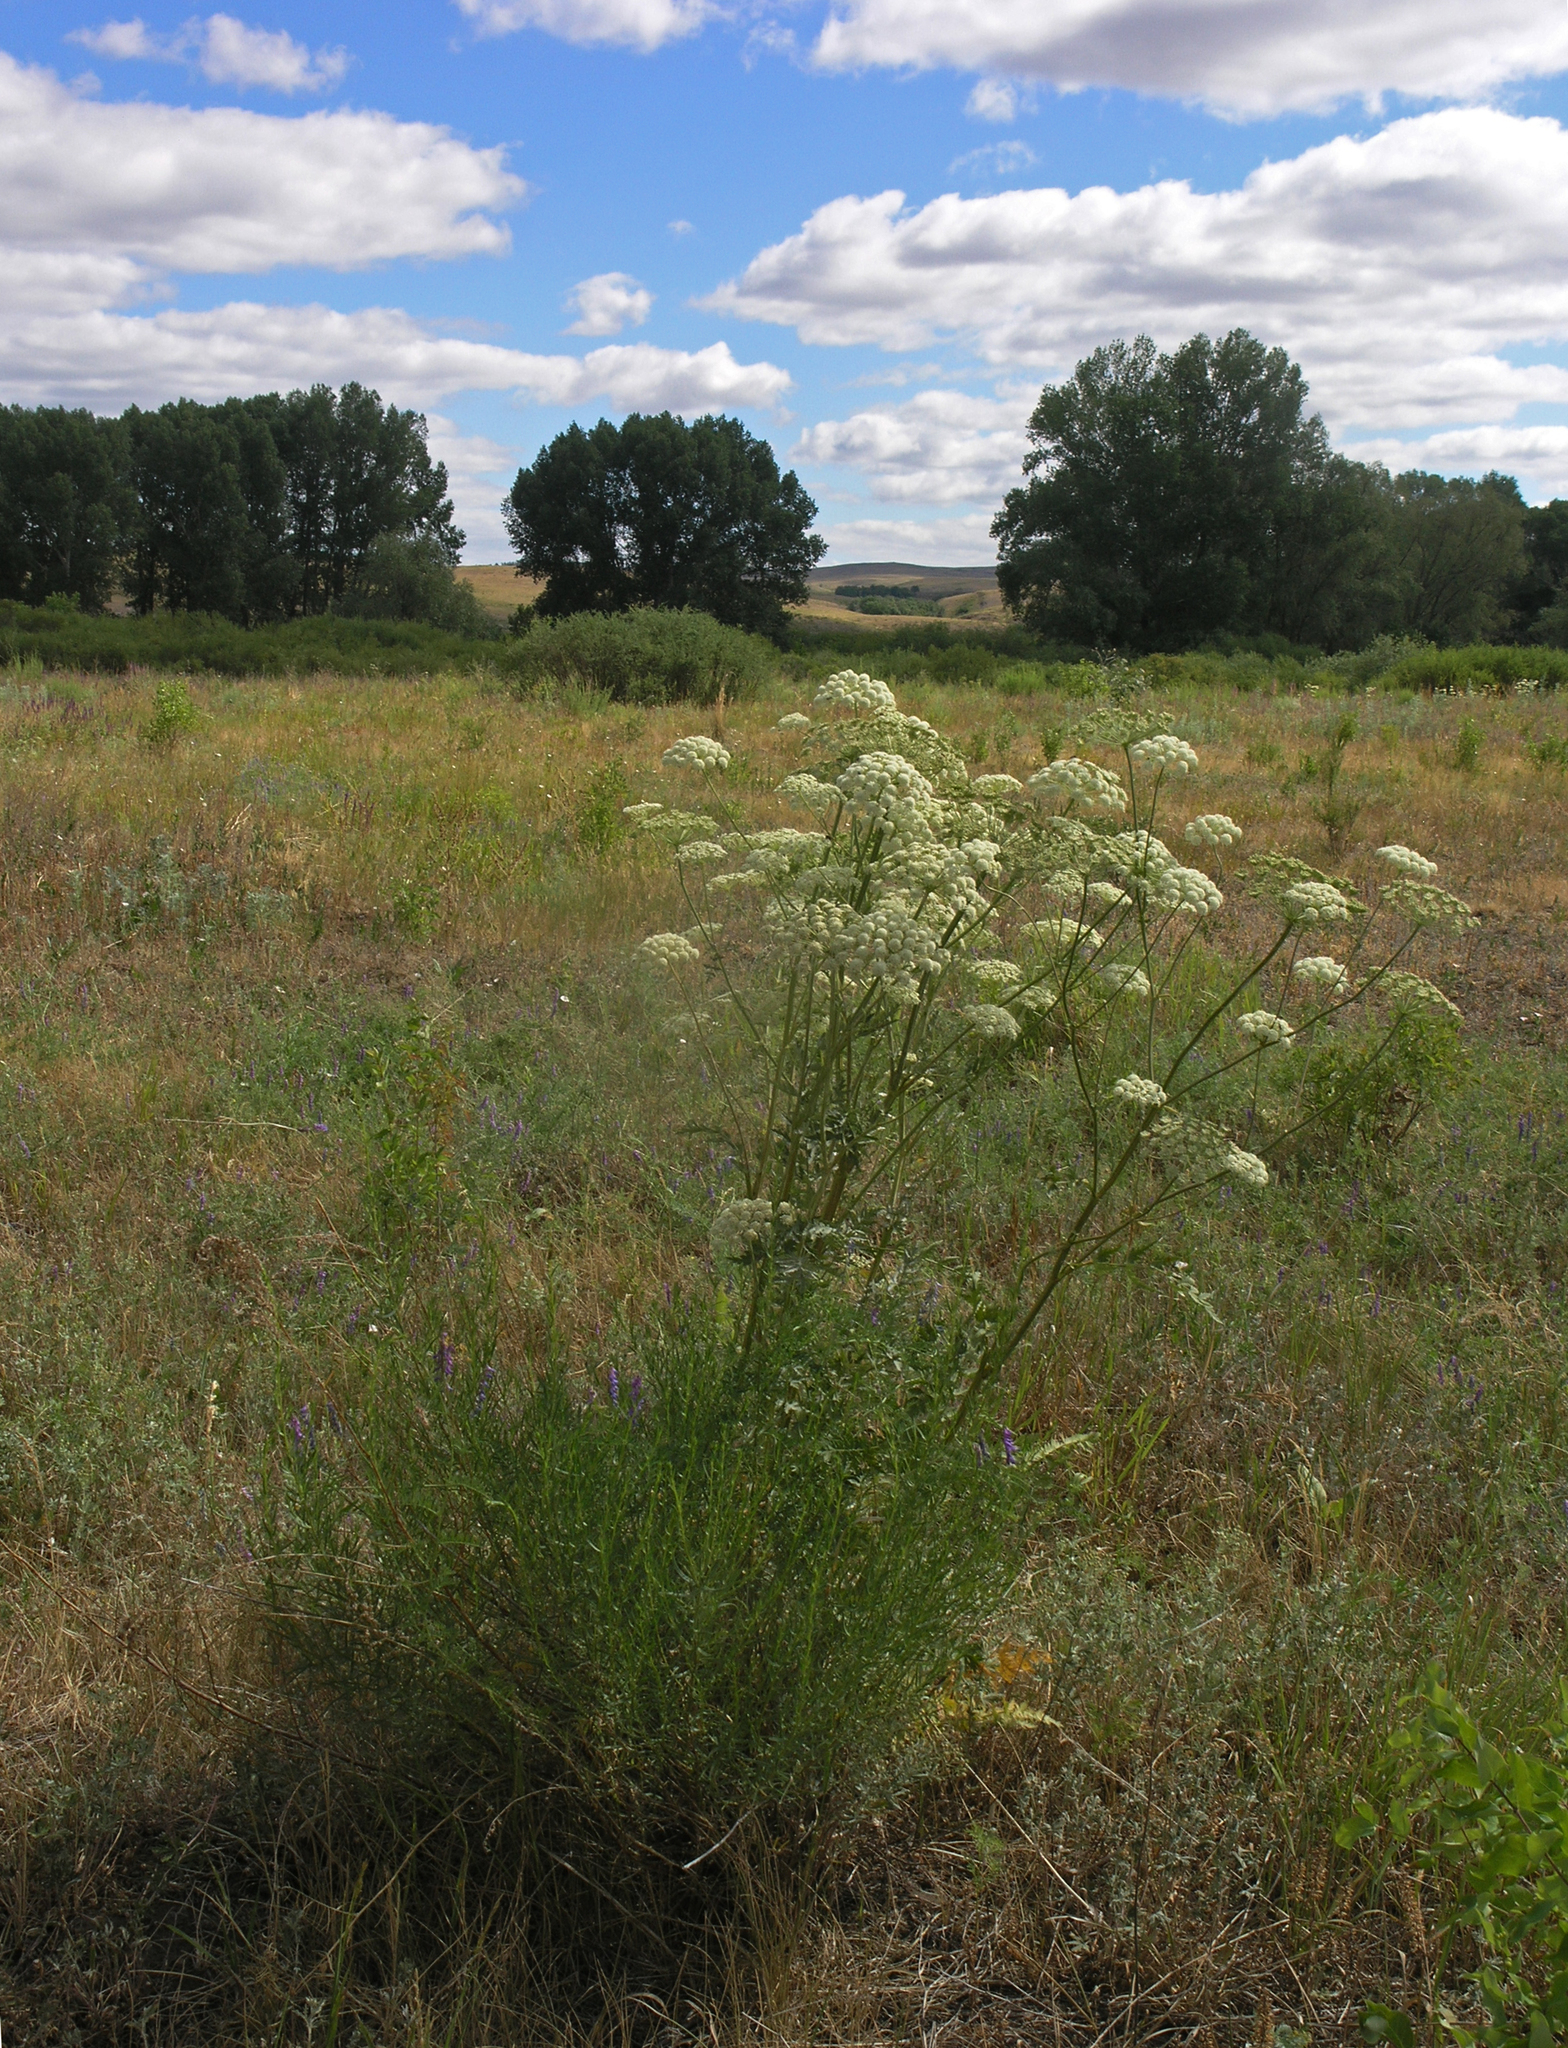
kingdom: Plantae
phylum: Tracheophyta
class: Magnoliopsida
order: Apiales
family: Apiaceae
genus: Seseli
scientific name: Seseli libanotis
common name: Mooncarrot
